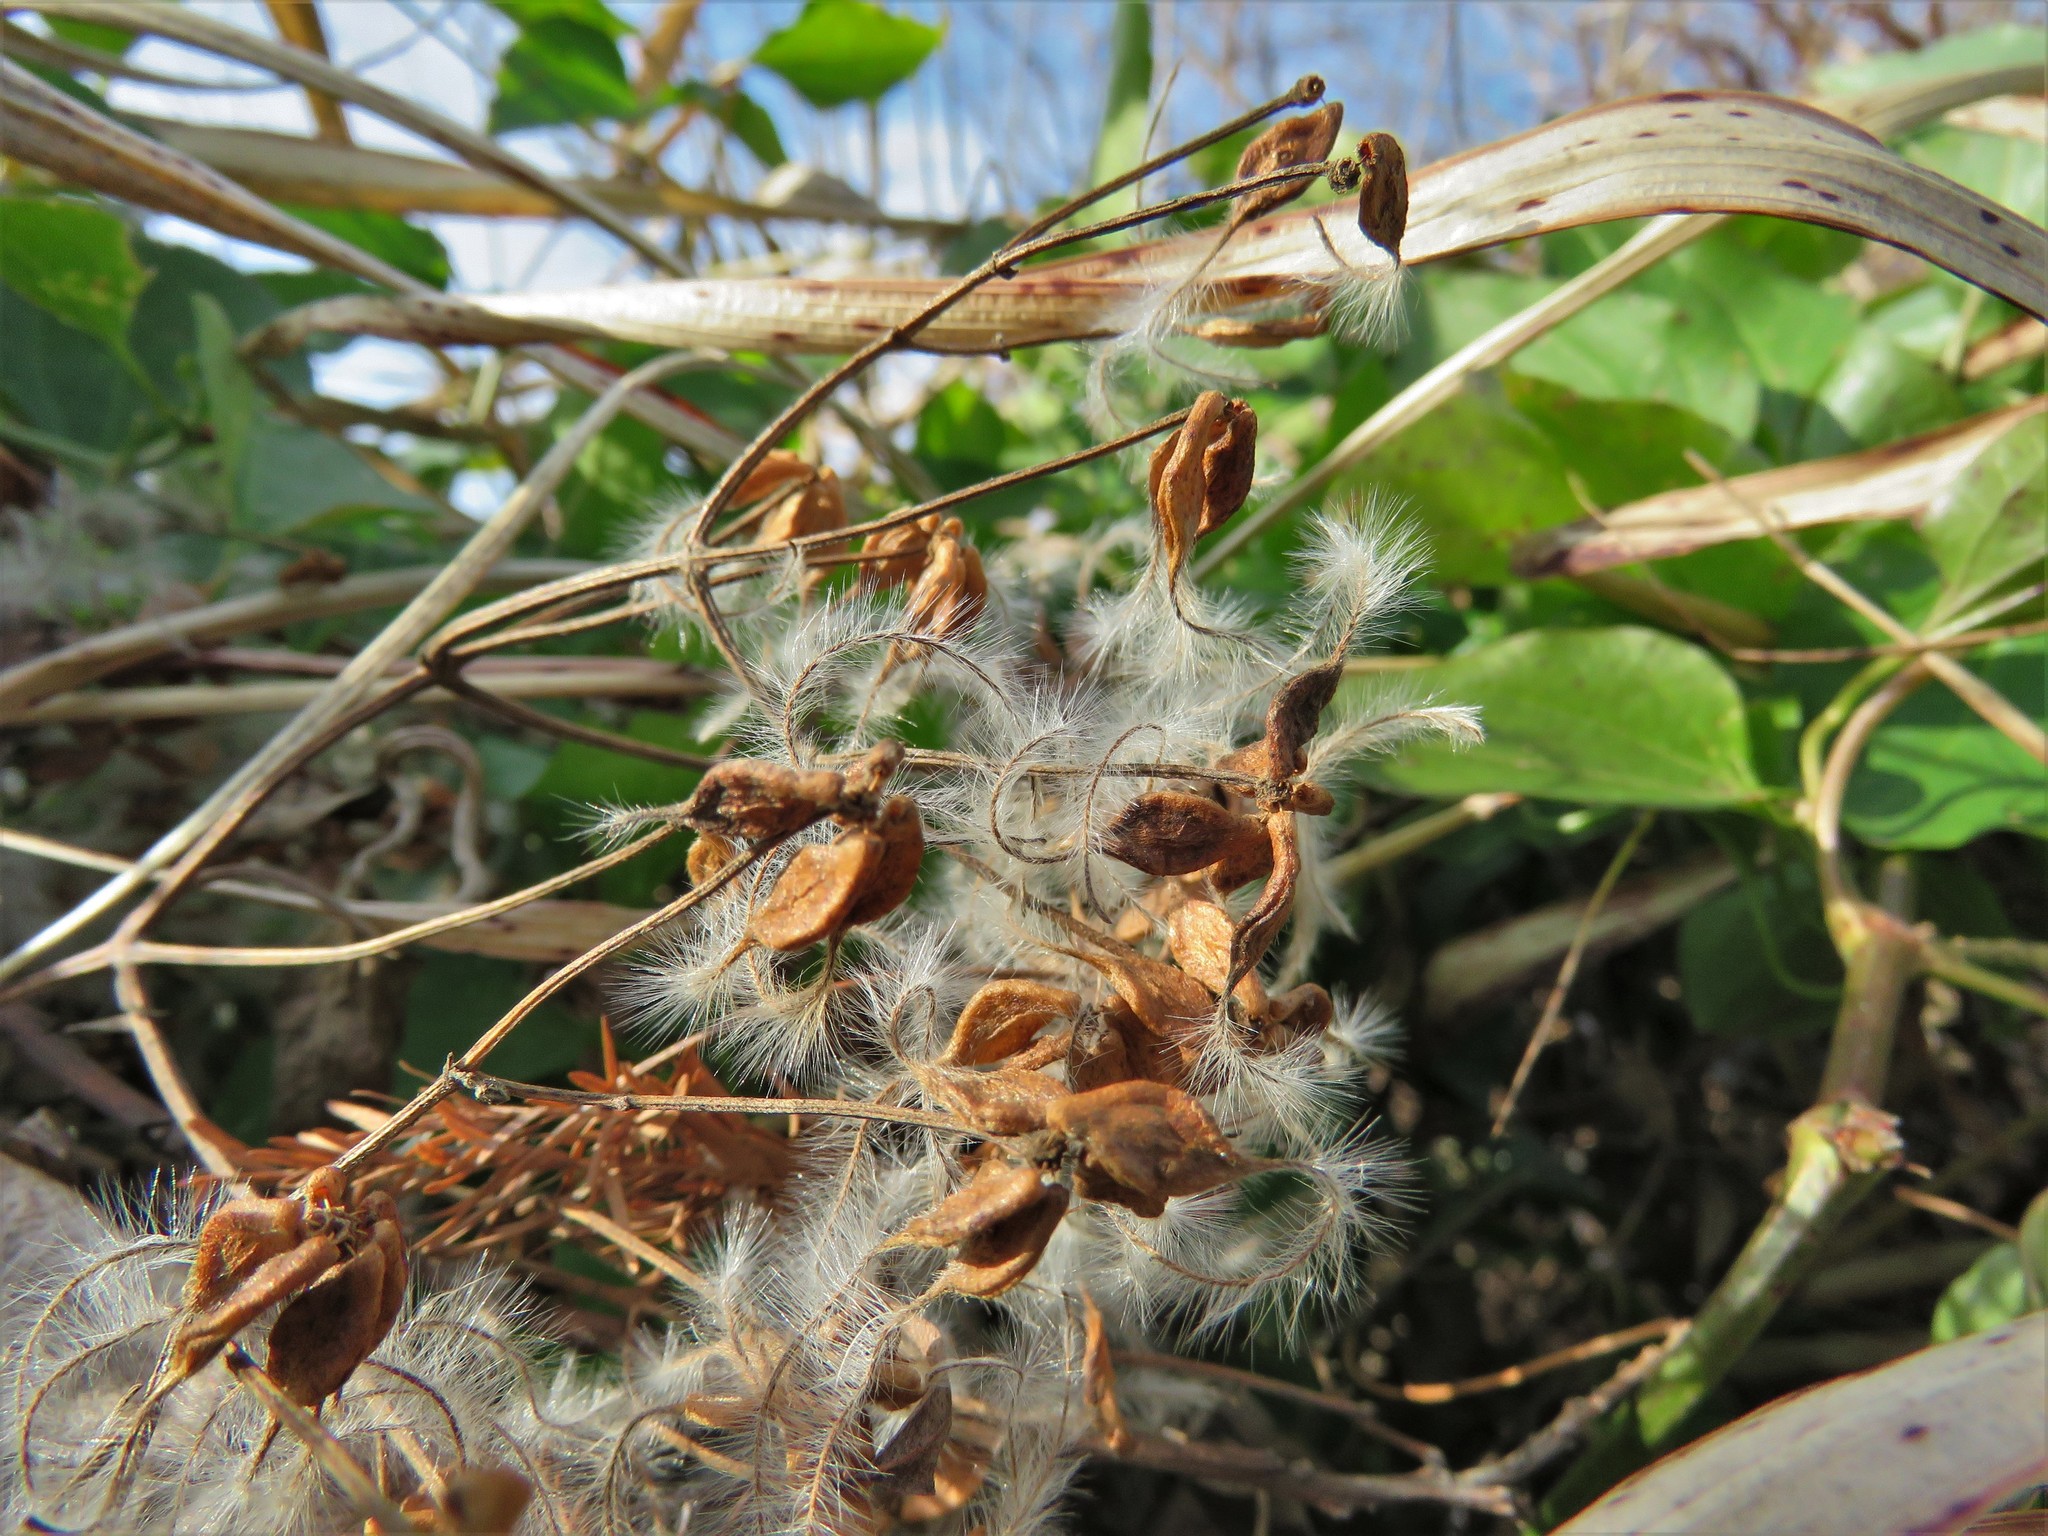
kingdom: Plantae
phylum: Tracheophyta
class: Magnoliopsida
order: Ranunculales
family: Ranunculaceae
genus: Clematis
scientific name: Clematis terniflora
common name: Sweet autumn clematis
